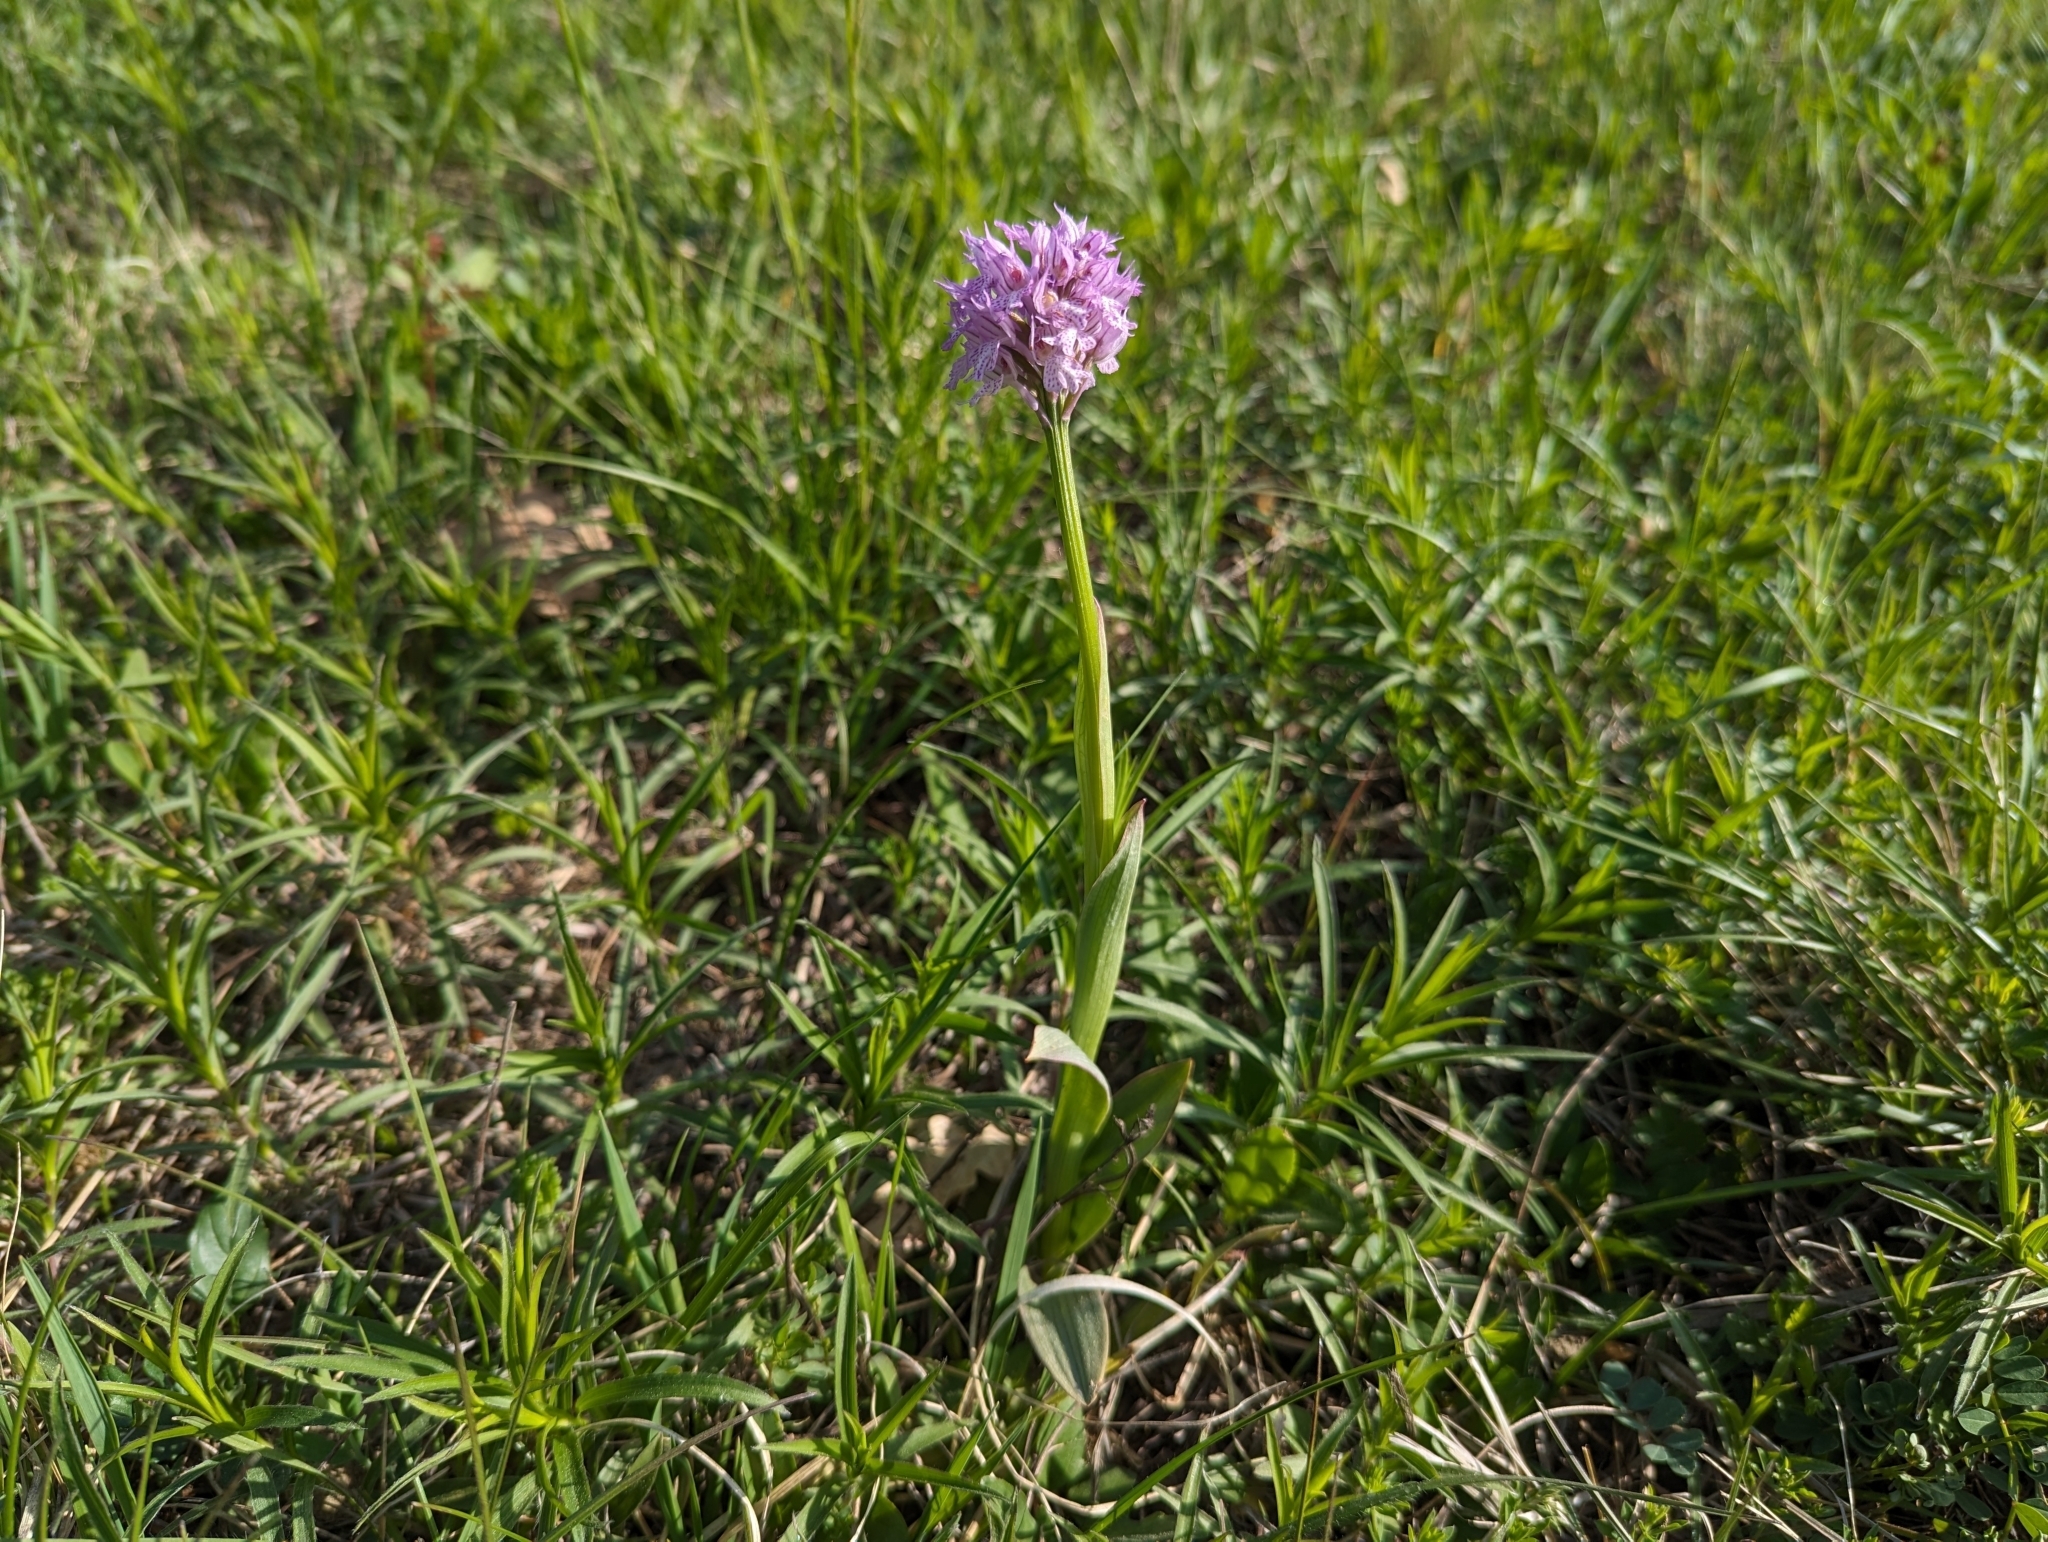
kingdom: Plantae
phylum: Tracheophyta
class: Liliopsida
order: Asparagales
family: Orchidaceae
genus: Neotinea
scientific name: Neotinea tridentata
